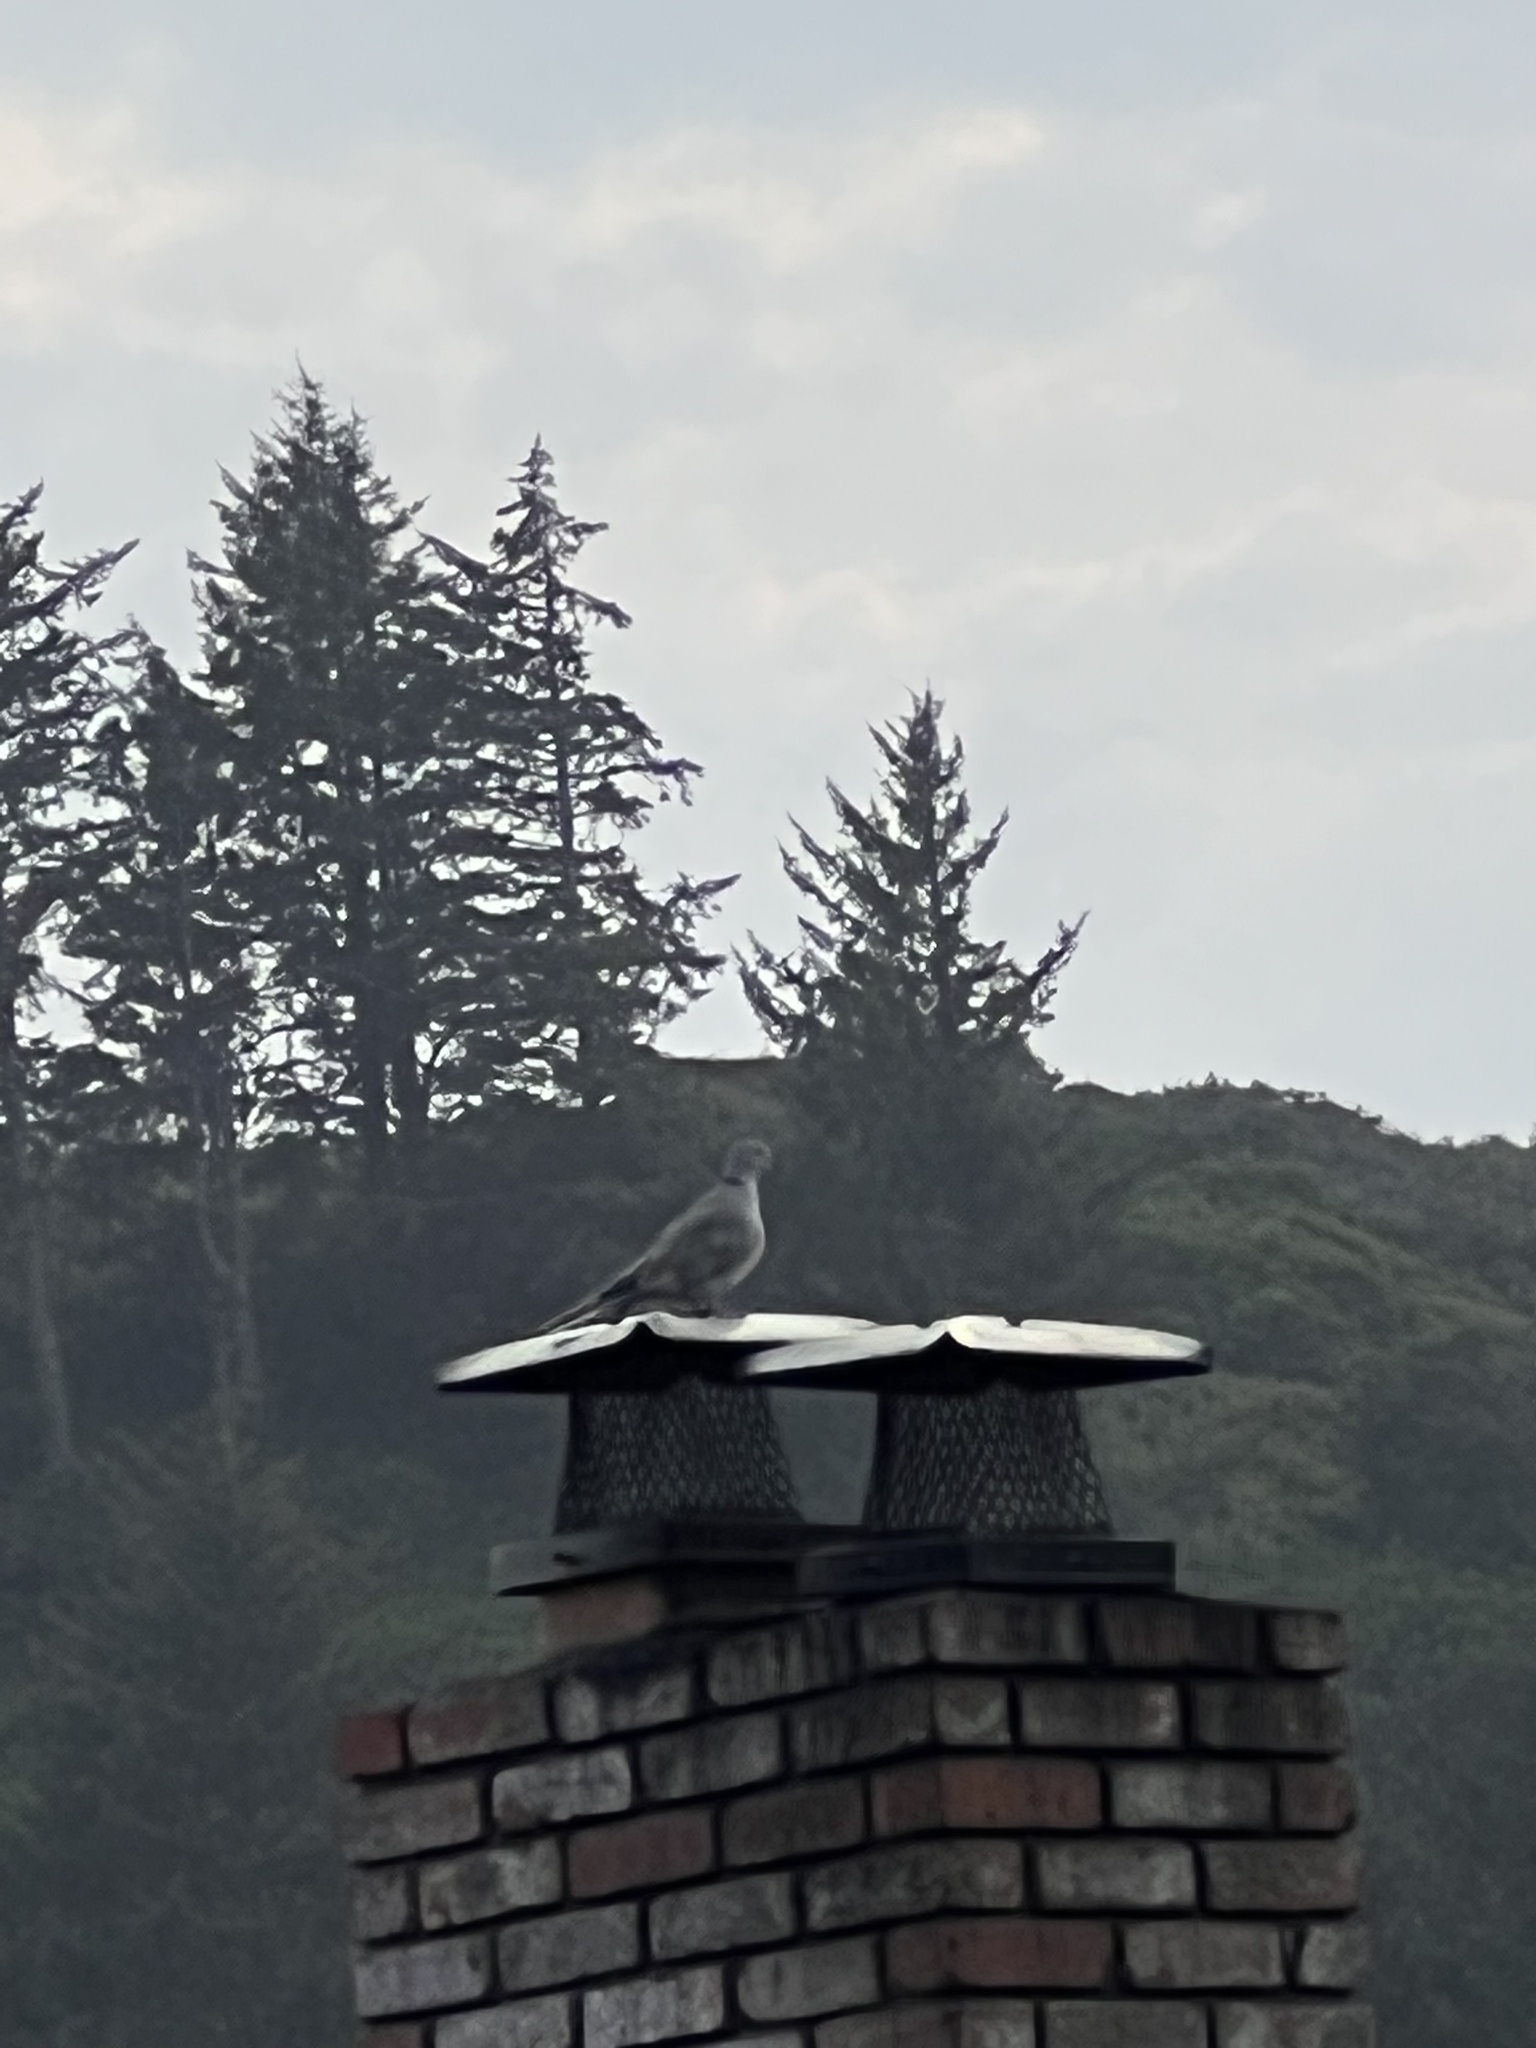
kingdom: Animalia
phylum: Chordata
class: Aves
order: Columbiformes
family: Columbidae
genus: Streptopelia
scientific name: Streptopelia decaocto
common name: Eurasian collared dove
